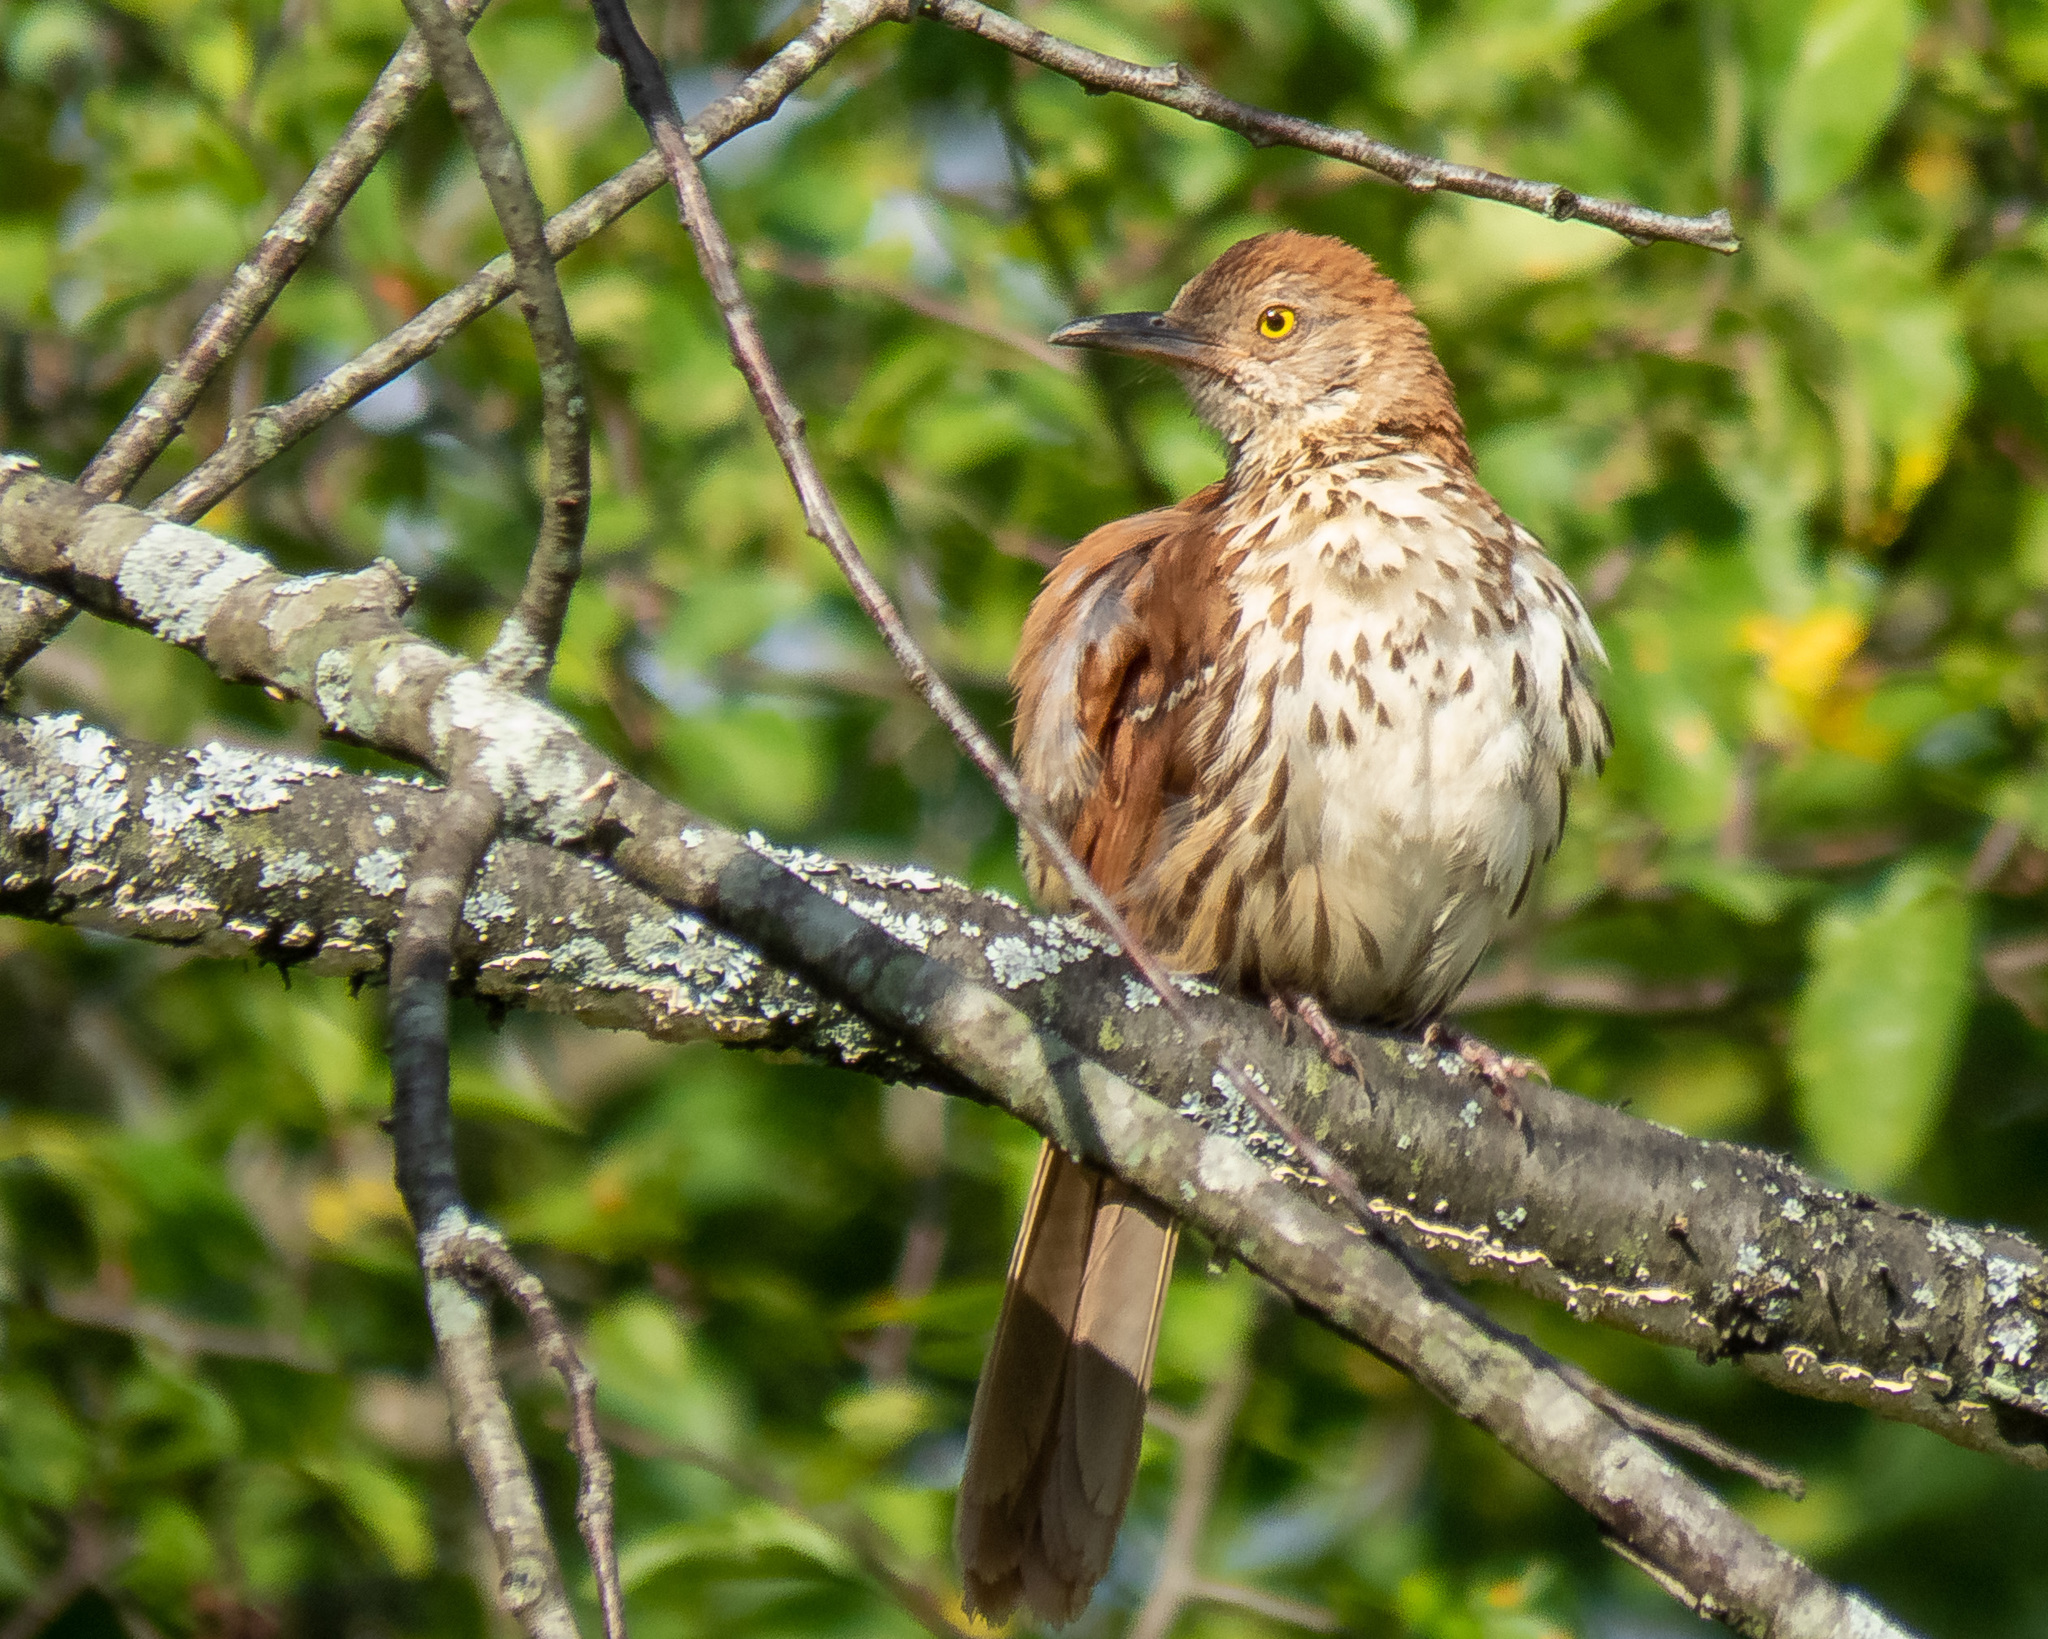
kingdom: Animalia
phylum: Chordata
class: Aves
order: Passeriformes
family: Mimidae
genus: Toxostoma
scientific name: Toxostoma rufum
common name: Brown thrasher
